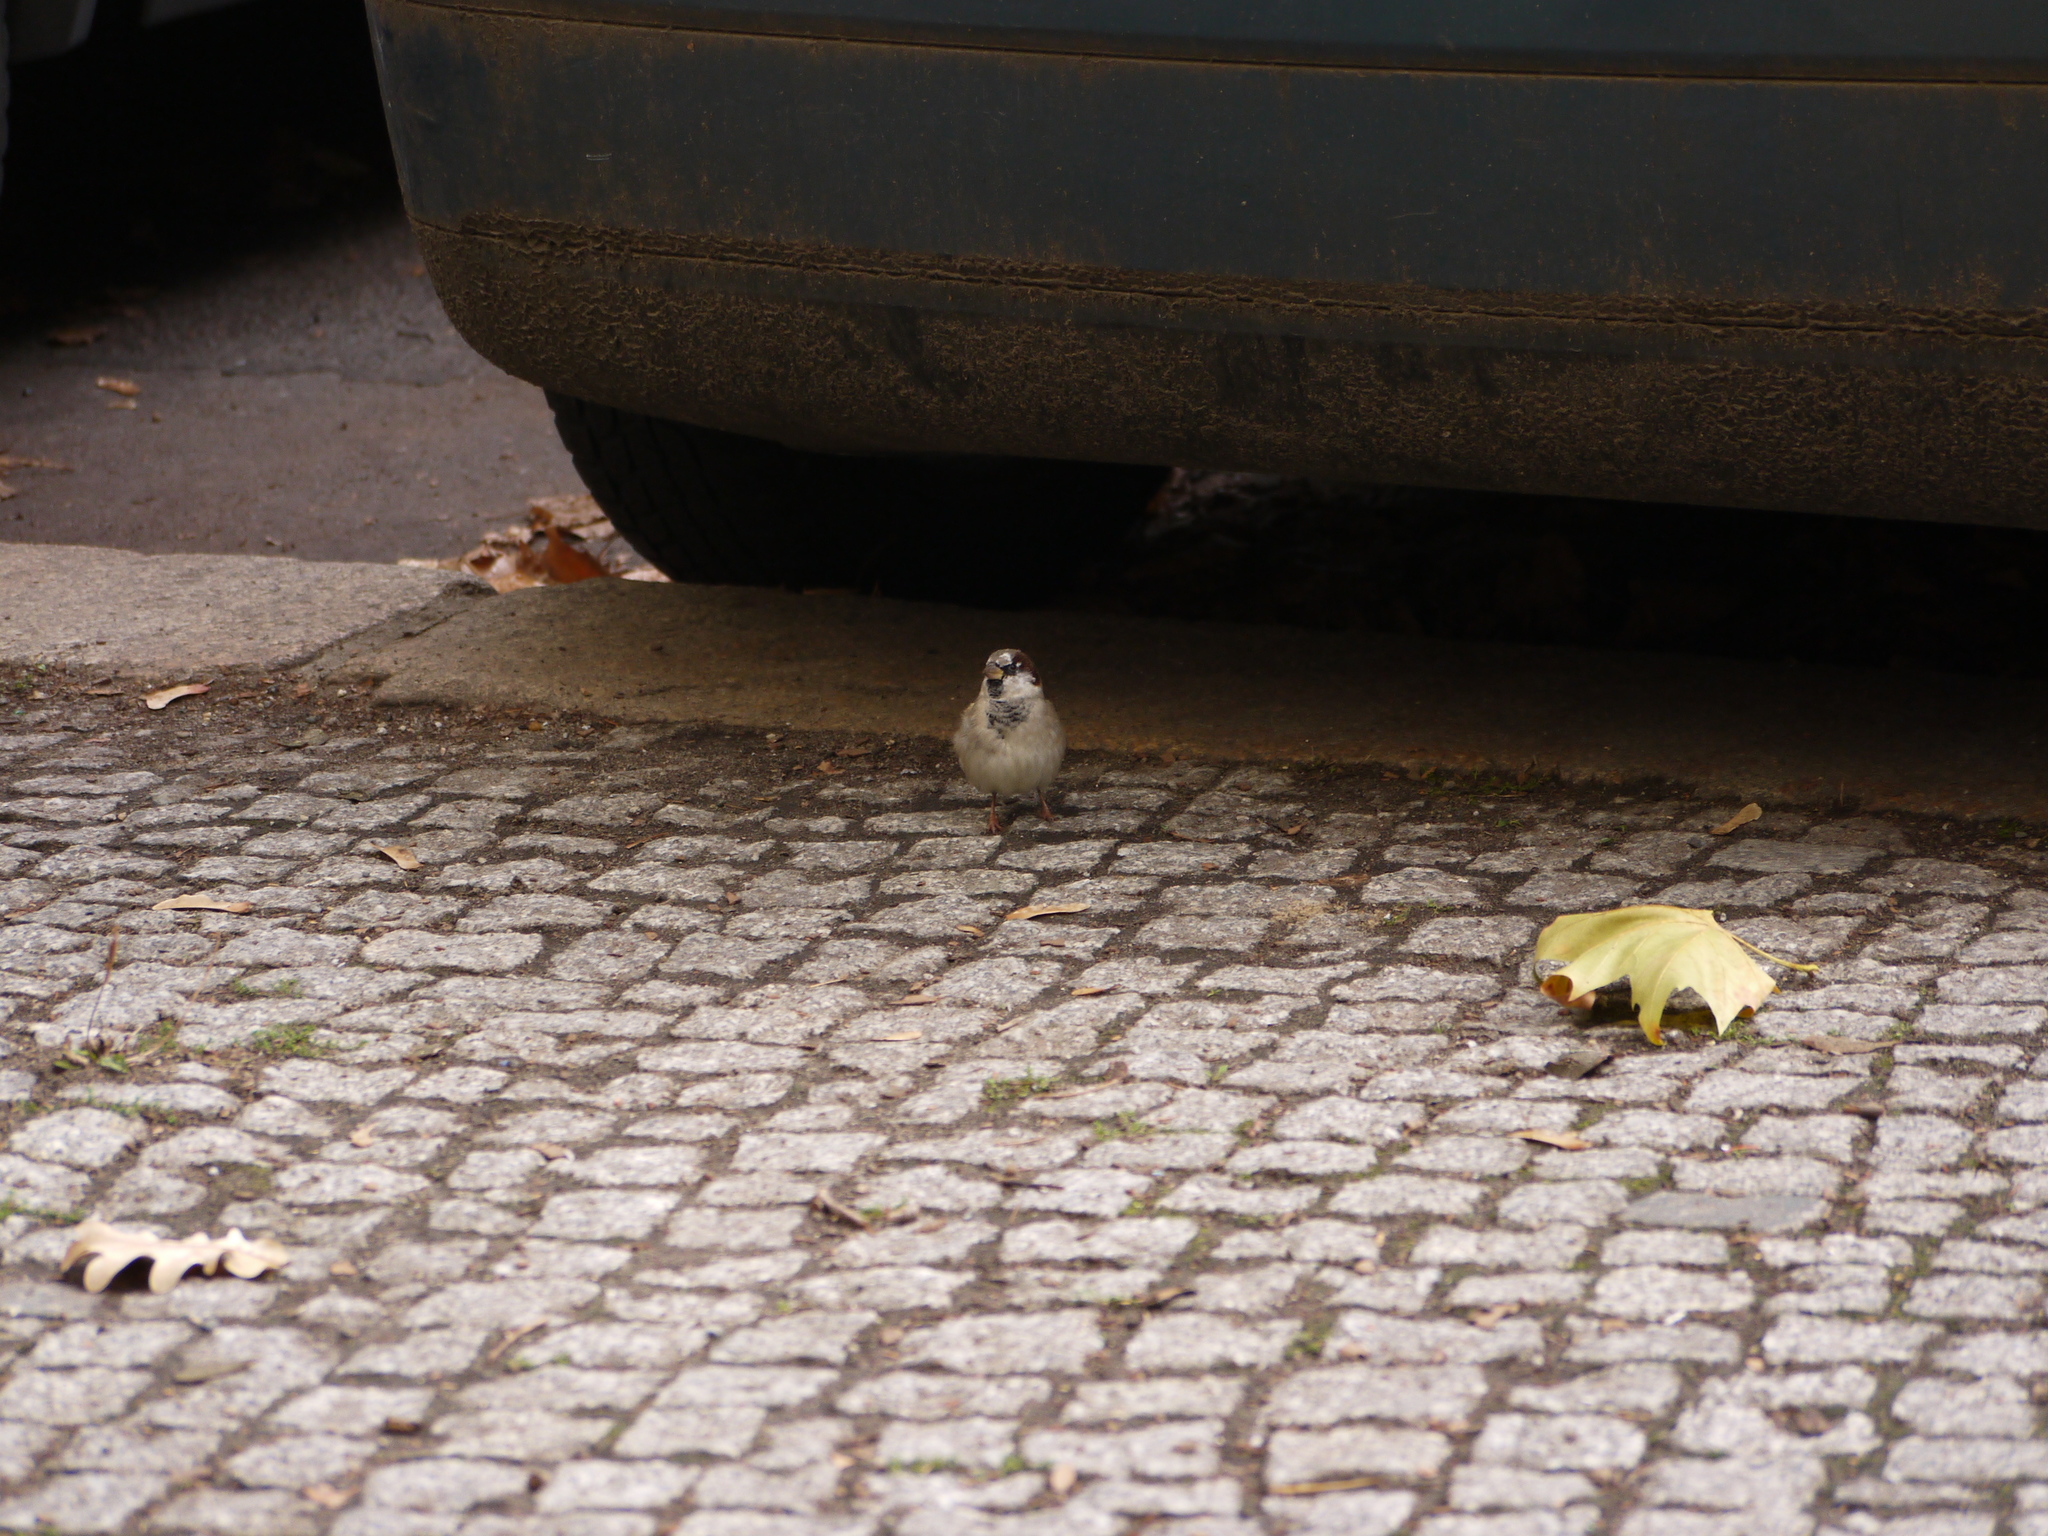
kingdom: Animalia
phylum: Chordata
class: Aves
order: Passeriformes
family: Passeridae
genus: Passer
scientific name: Passer domesticus
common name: House sparrow
